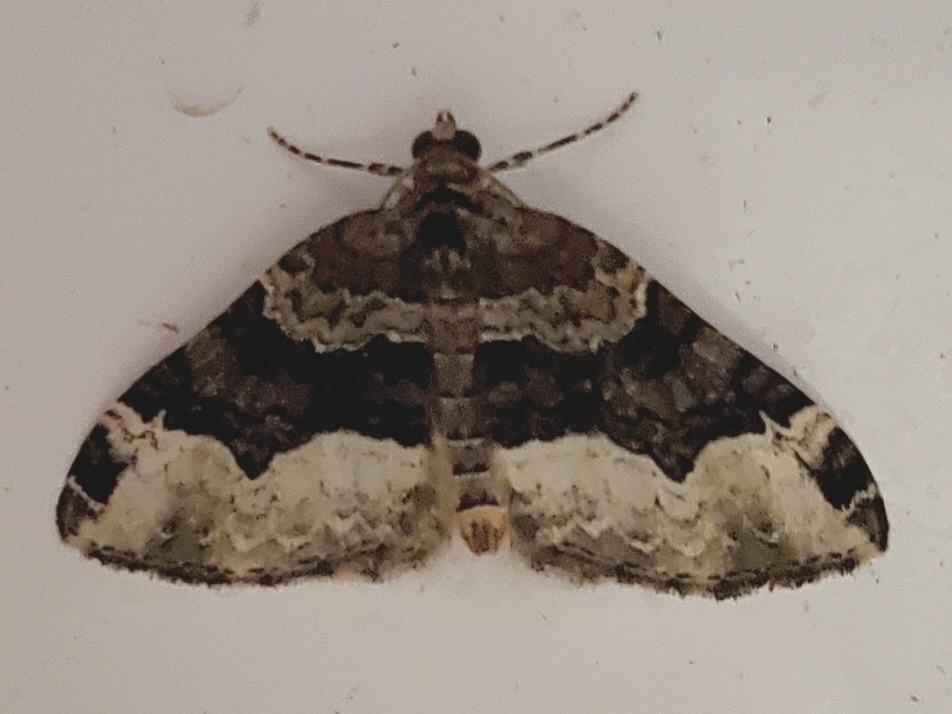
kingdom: Animalia
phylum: Arthropoda
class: Insecta
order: Lepidoptera
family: Geometridae
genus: Euphyia
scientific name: Euphyia intermediata
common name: Sharp-angled carpet
